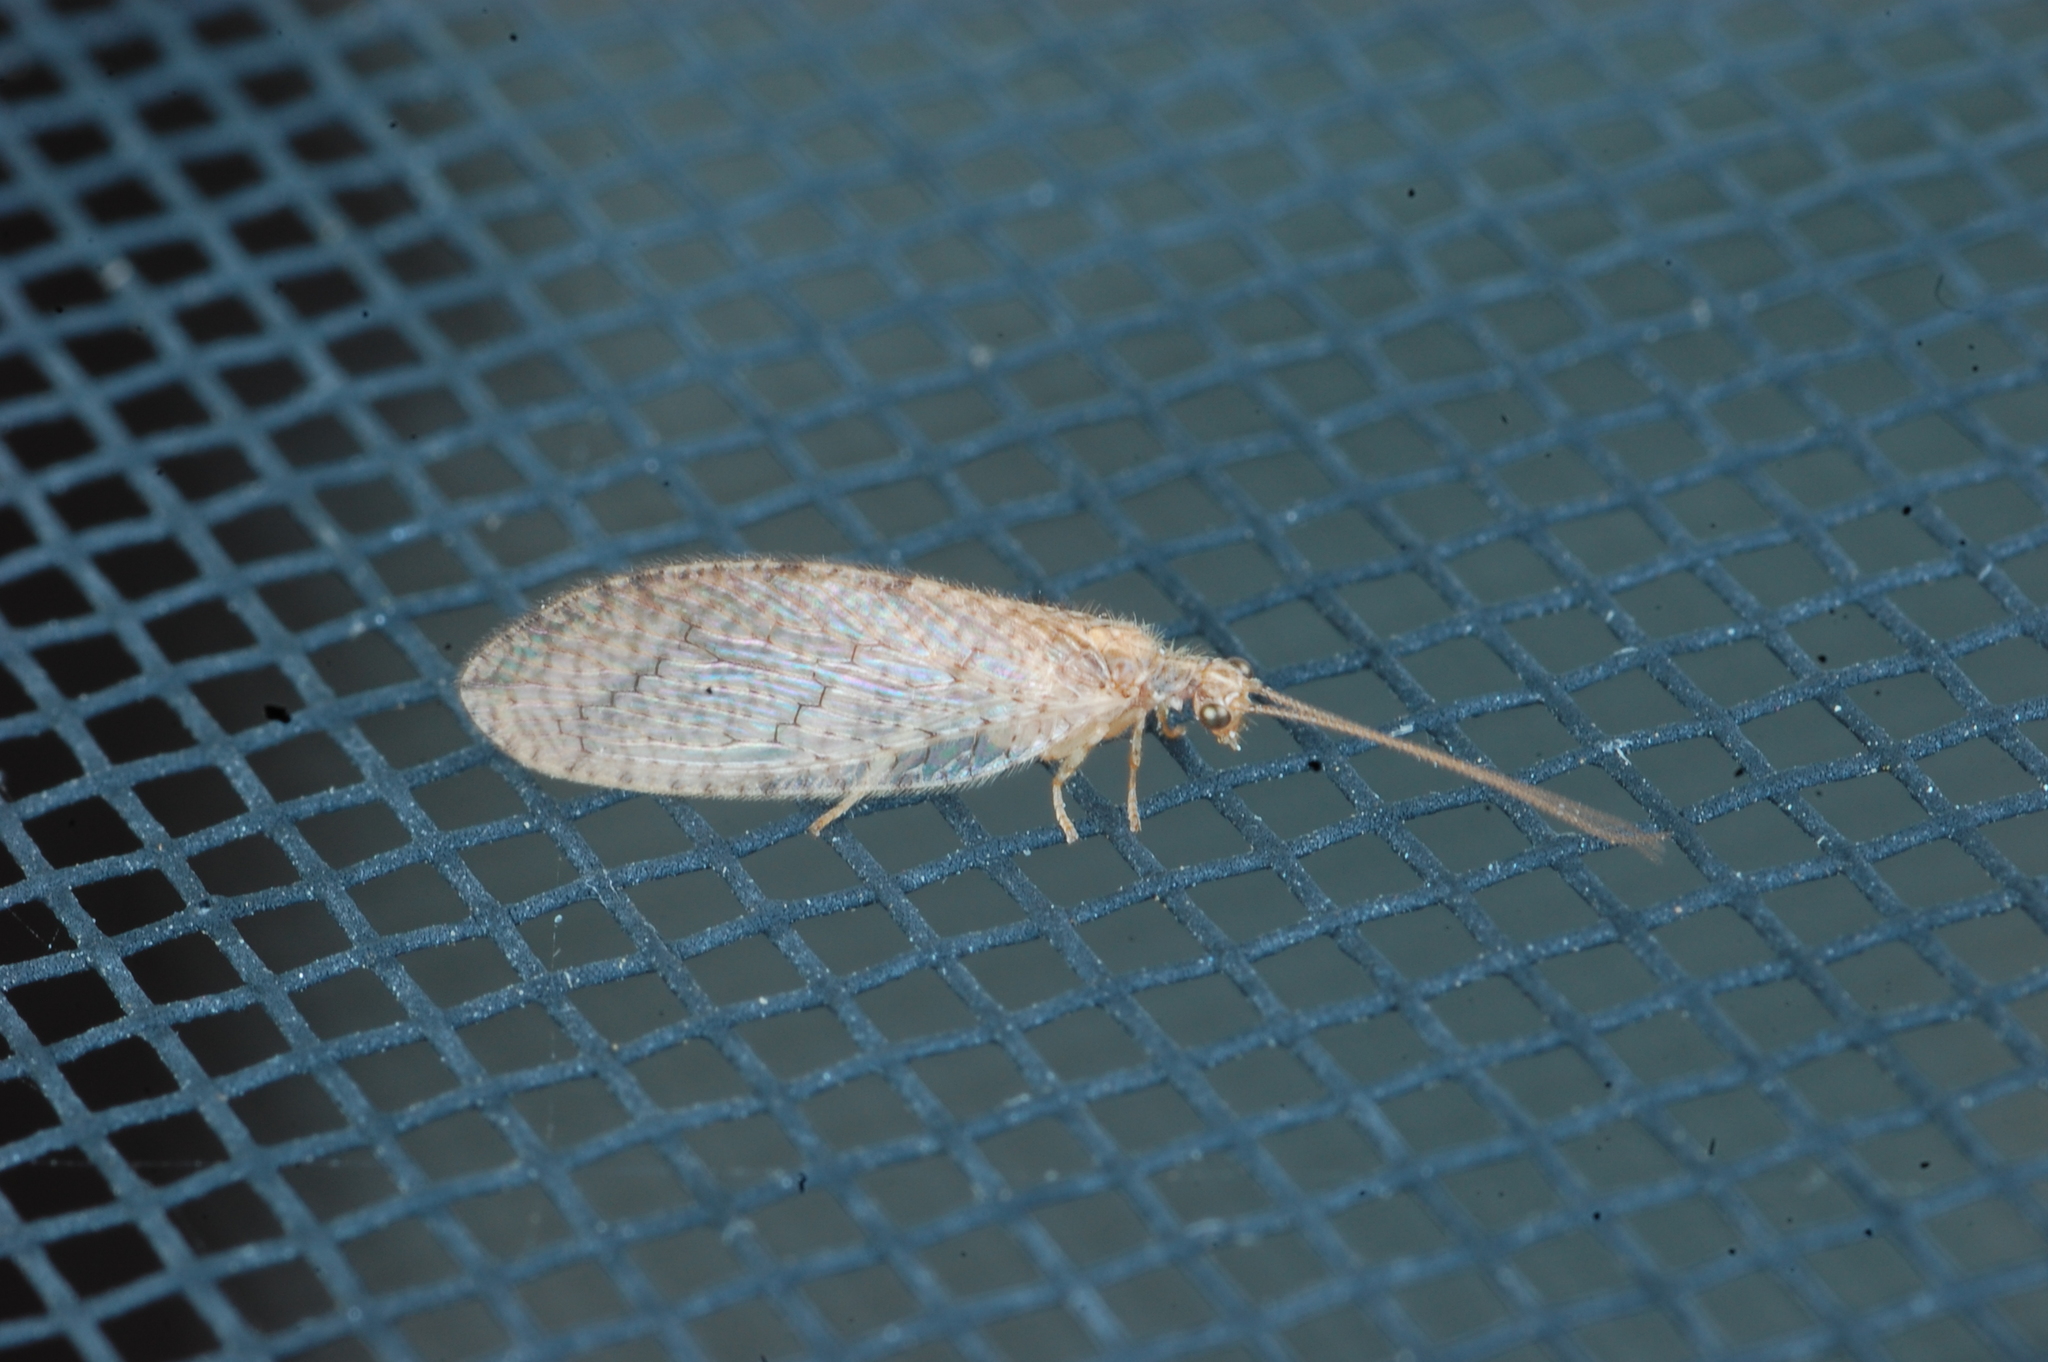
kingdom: Animalia
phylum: Arthropoda
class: Insecta
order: Neuroptera
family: Hemerobiidae
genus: Micromus
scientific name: Micromus posticus
